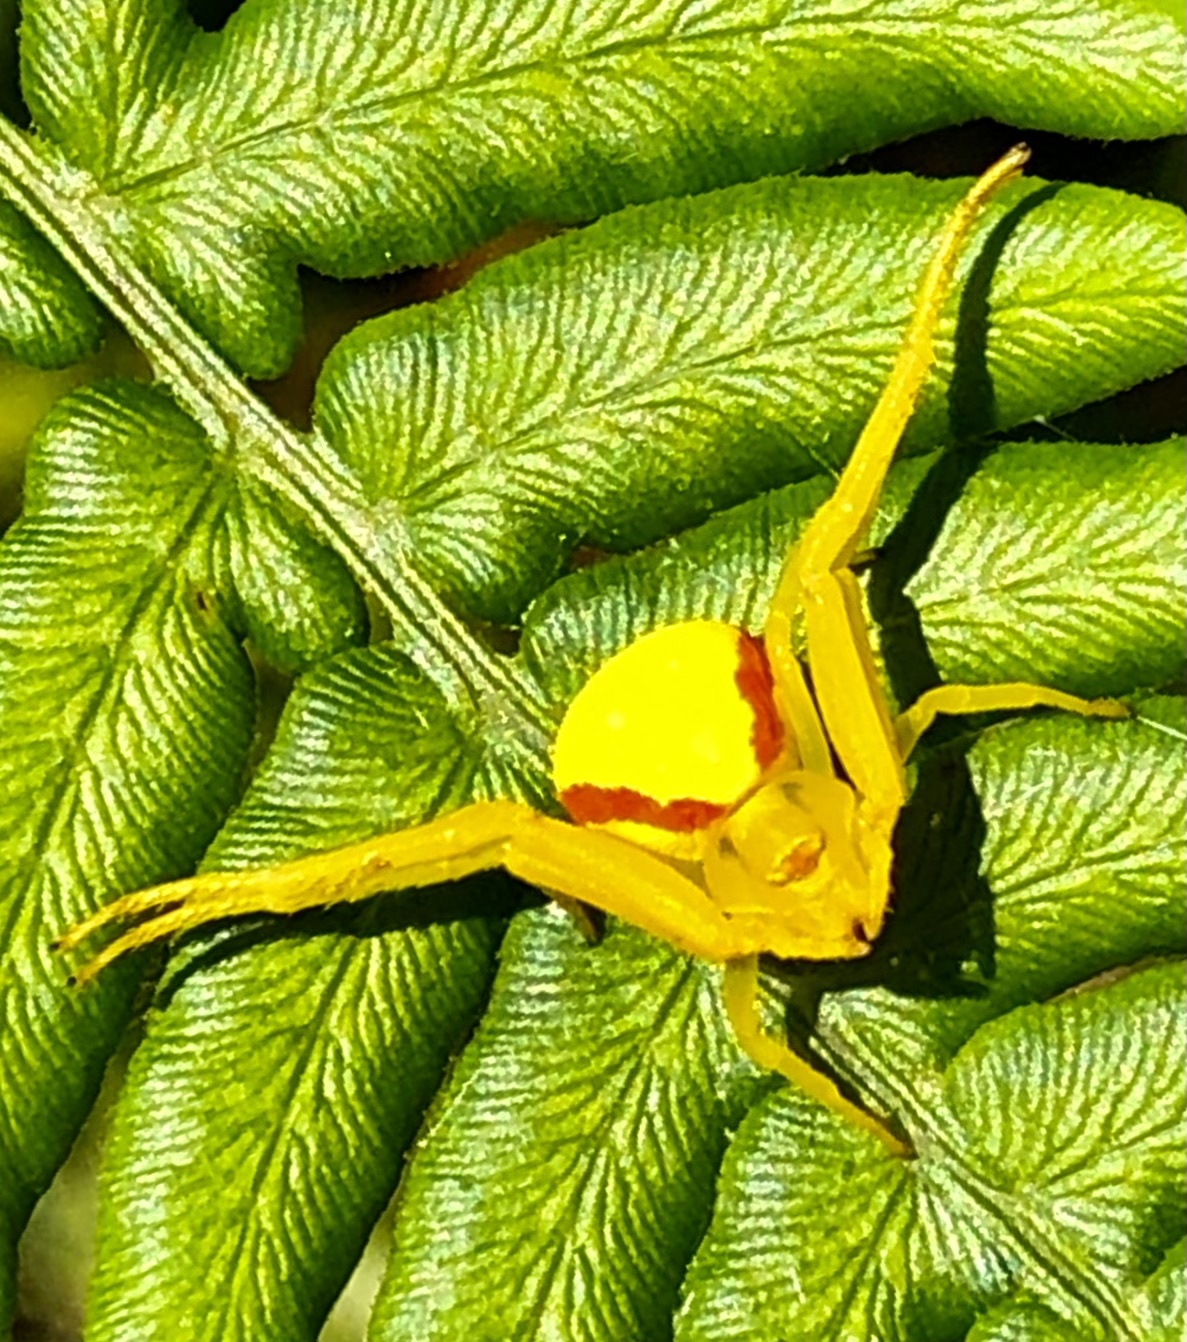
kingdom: Animalia
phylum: Arthropoda
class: Arachnida
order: Araneae
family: Thomisidae
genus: Misumena
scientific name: Misumena vatia
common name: Goldenrod crab spider
